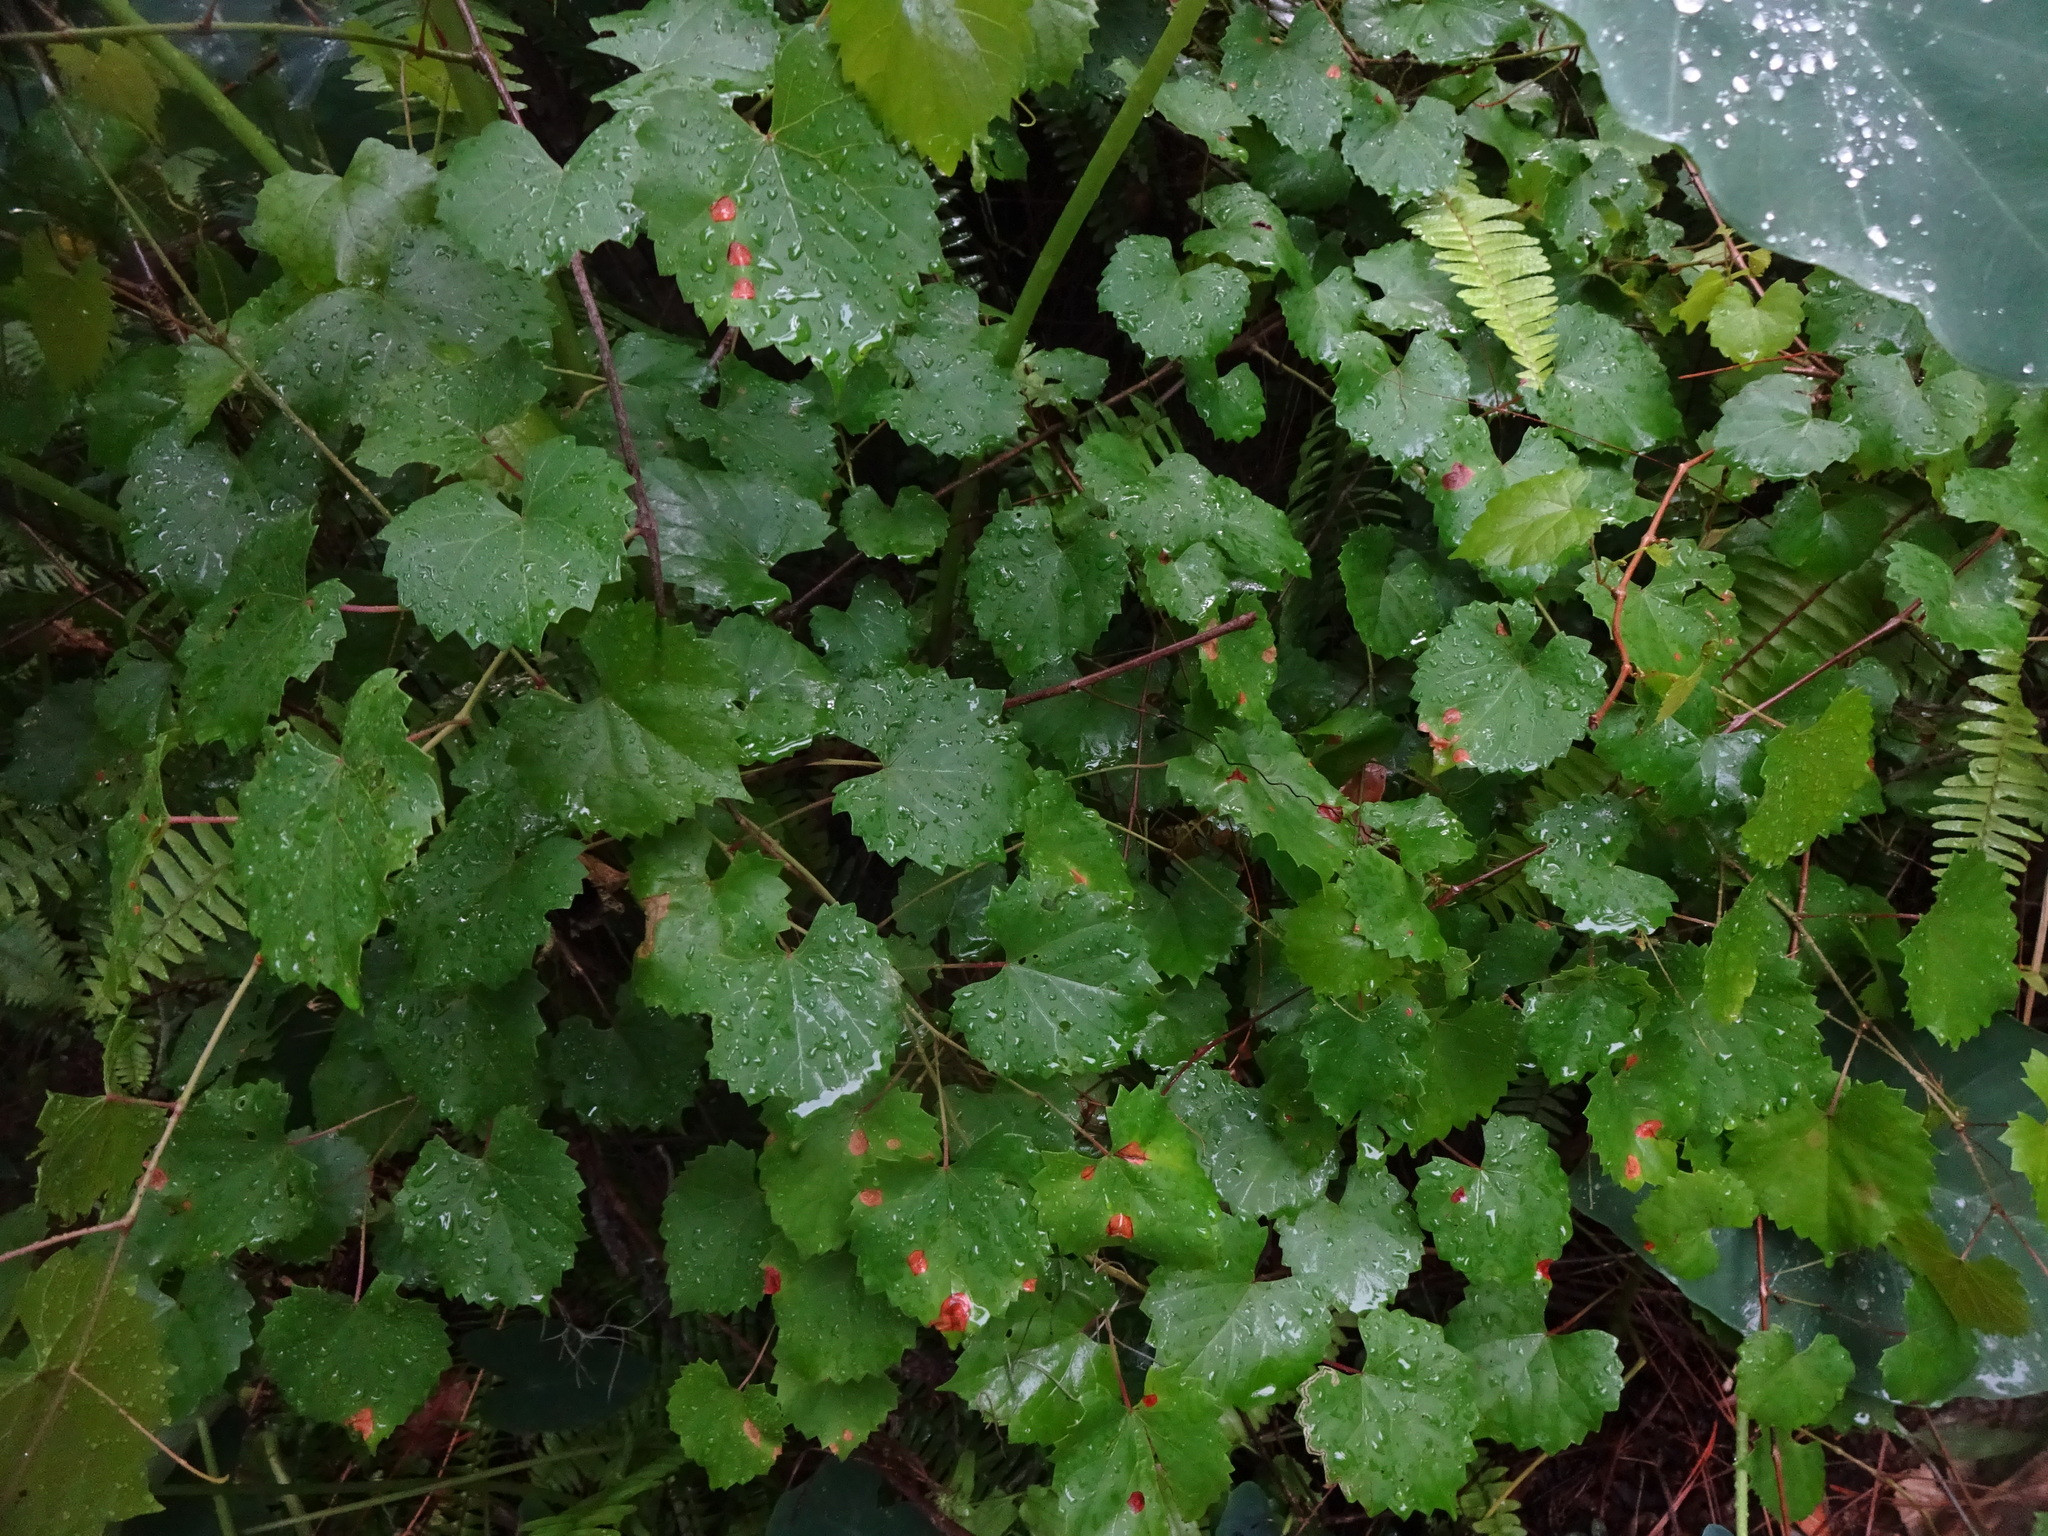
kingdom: Plantae
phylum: Tracheophyta
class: Magnoliopsida
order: Vitales
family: Vitaceae
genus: Vitis
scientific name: Vitis rotundifolia
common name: Muscadine grape
